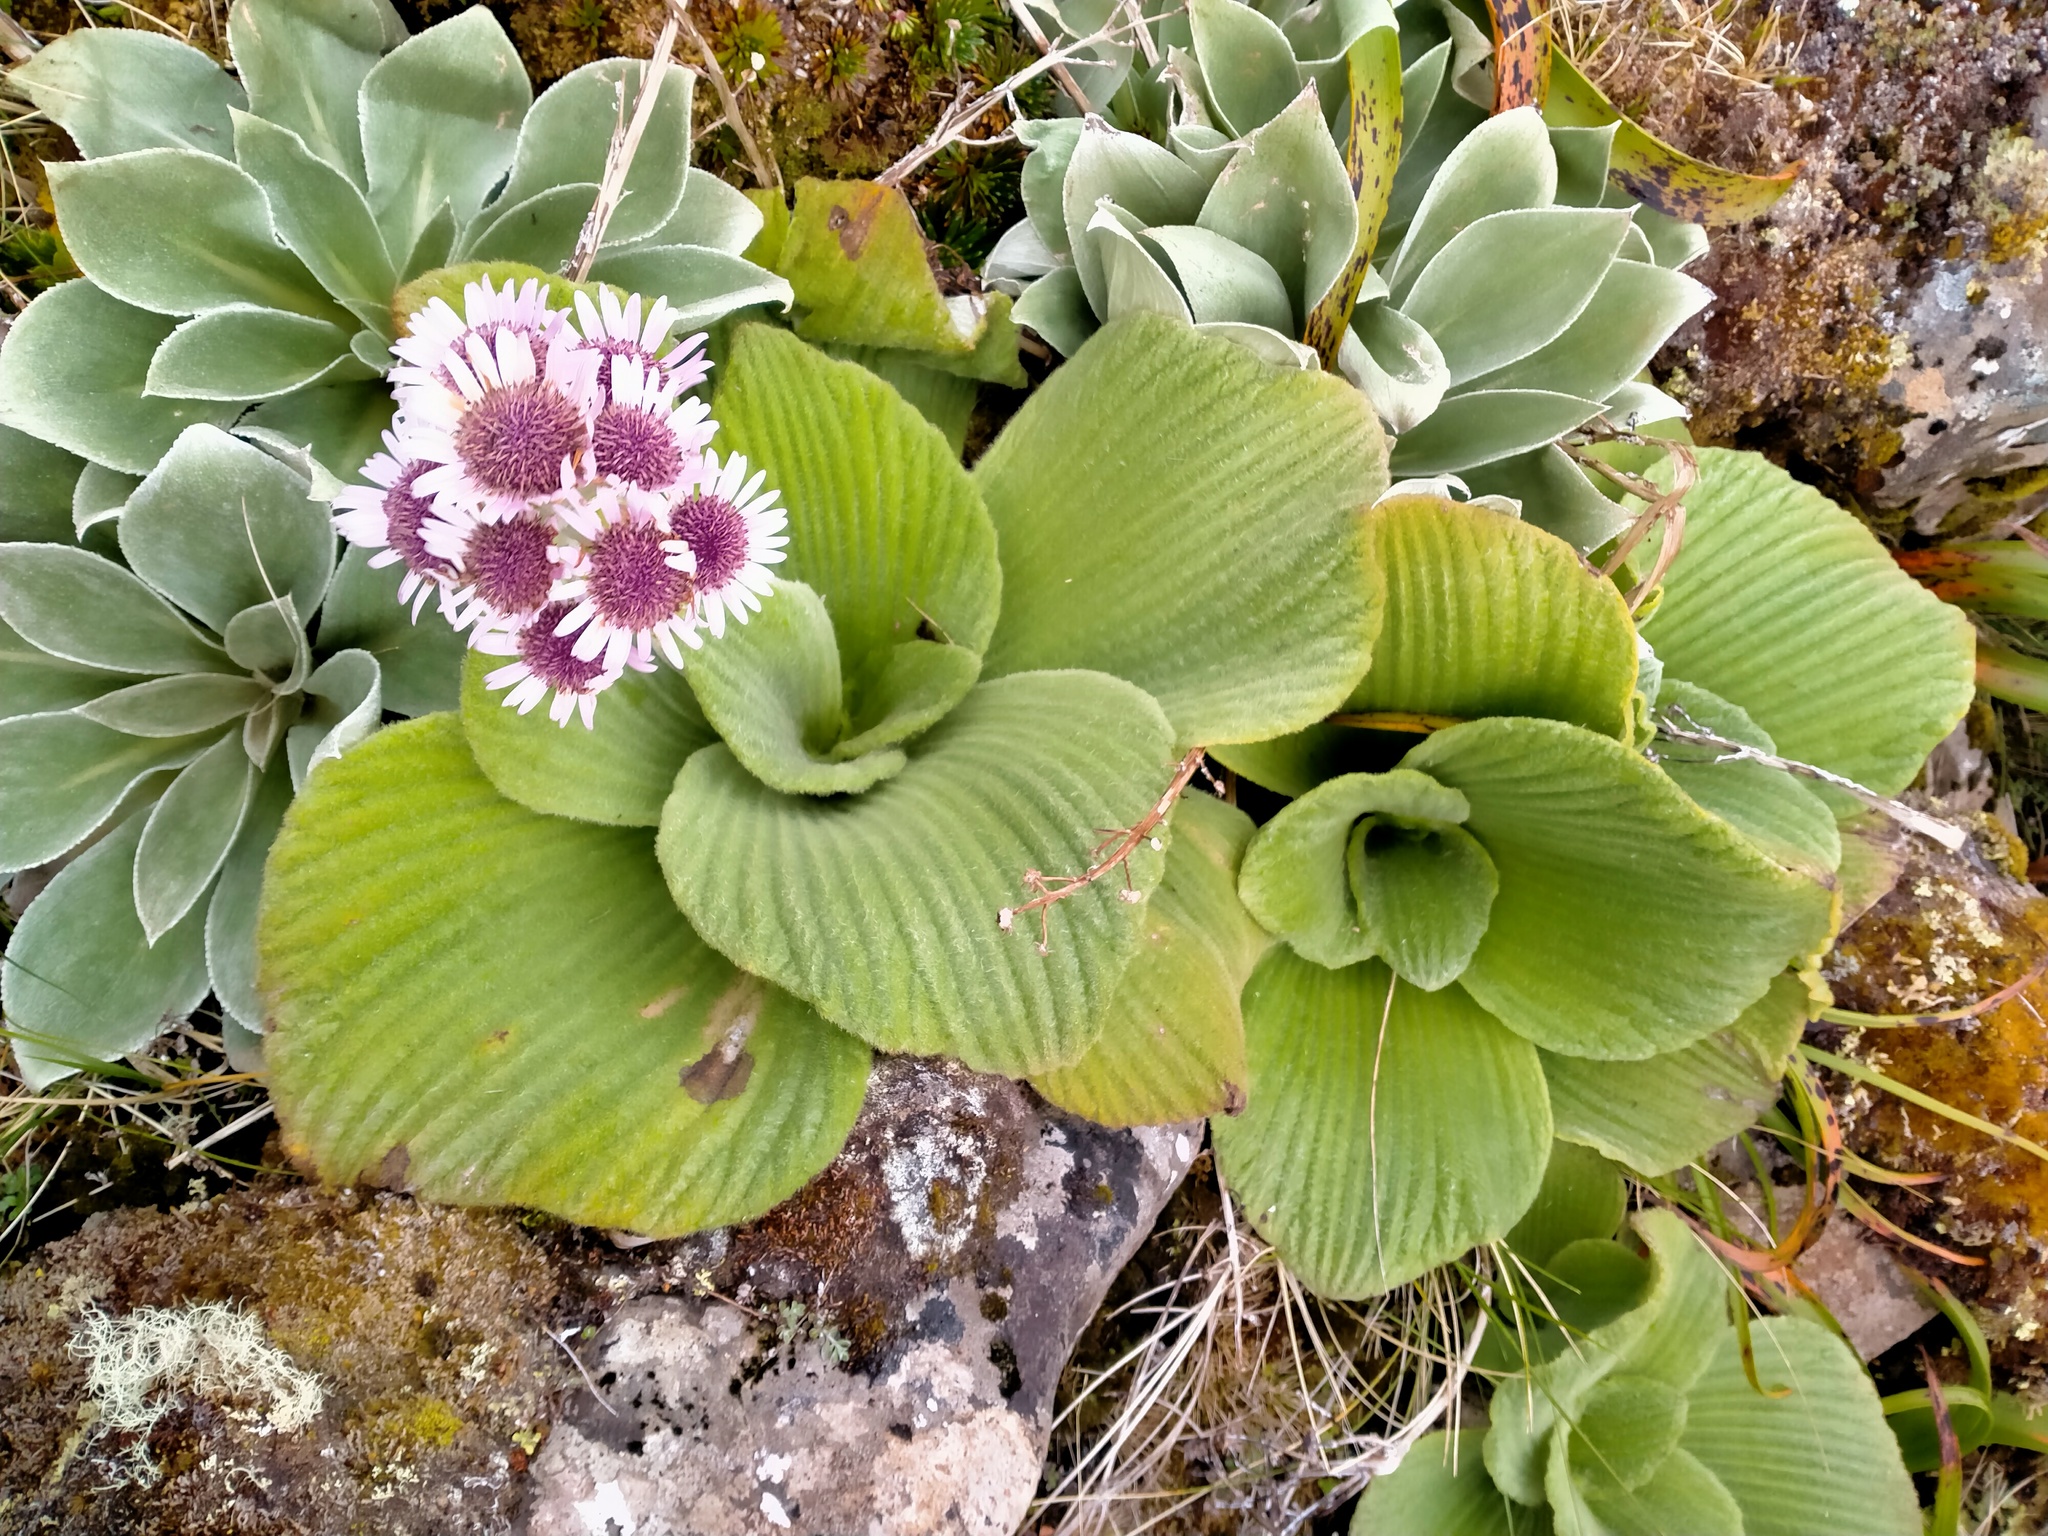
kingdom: Plantae
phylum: Tracheophyta
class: Magnoliopsida
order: Asterales
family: Asteraceae
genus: Pleurophyllum
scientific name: Pleurophyllum speciosum
